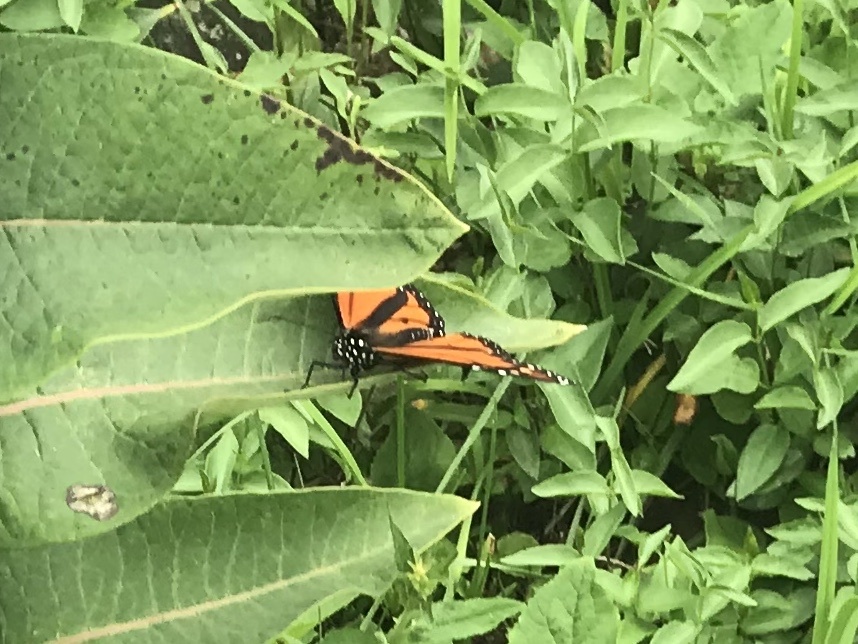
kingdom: Animalia
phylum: Arthropoda
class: Insecta
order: Lepidoptera
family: Nymphalidae
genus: Danaus
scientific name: Danaus plexippus
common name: Monarch
